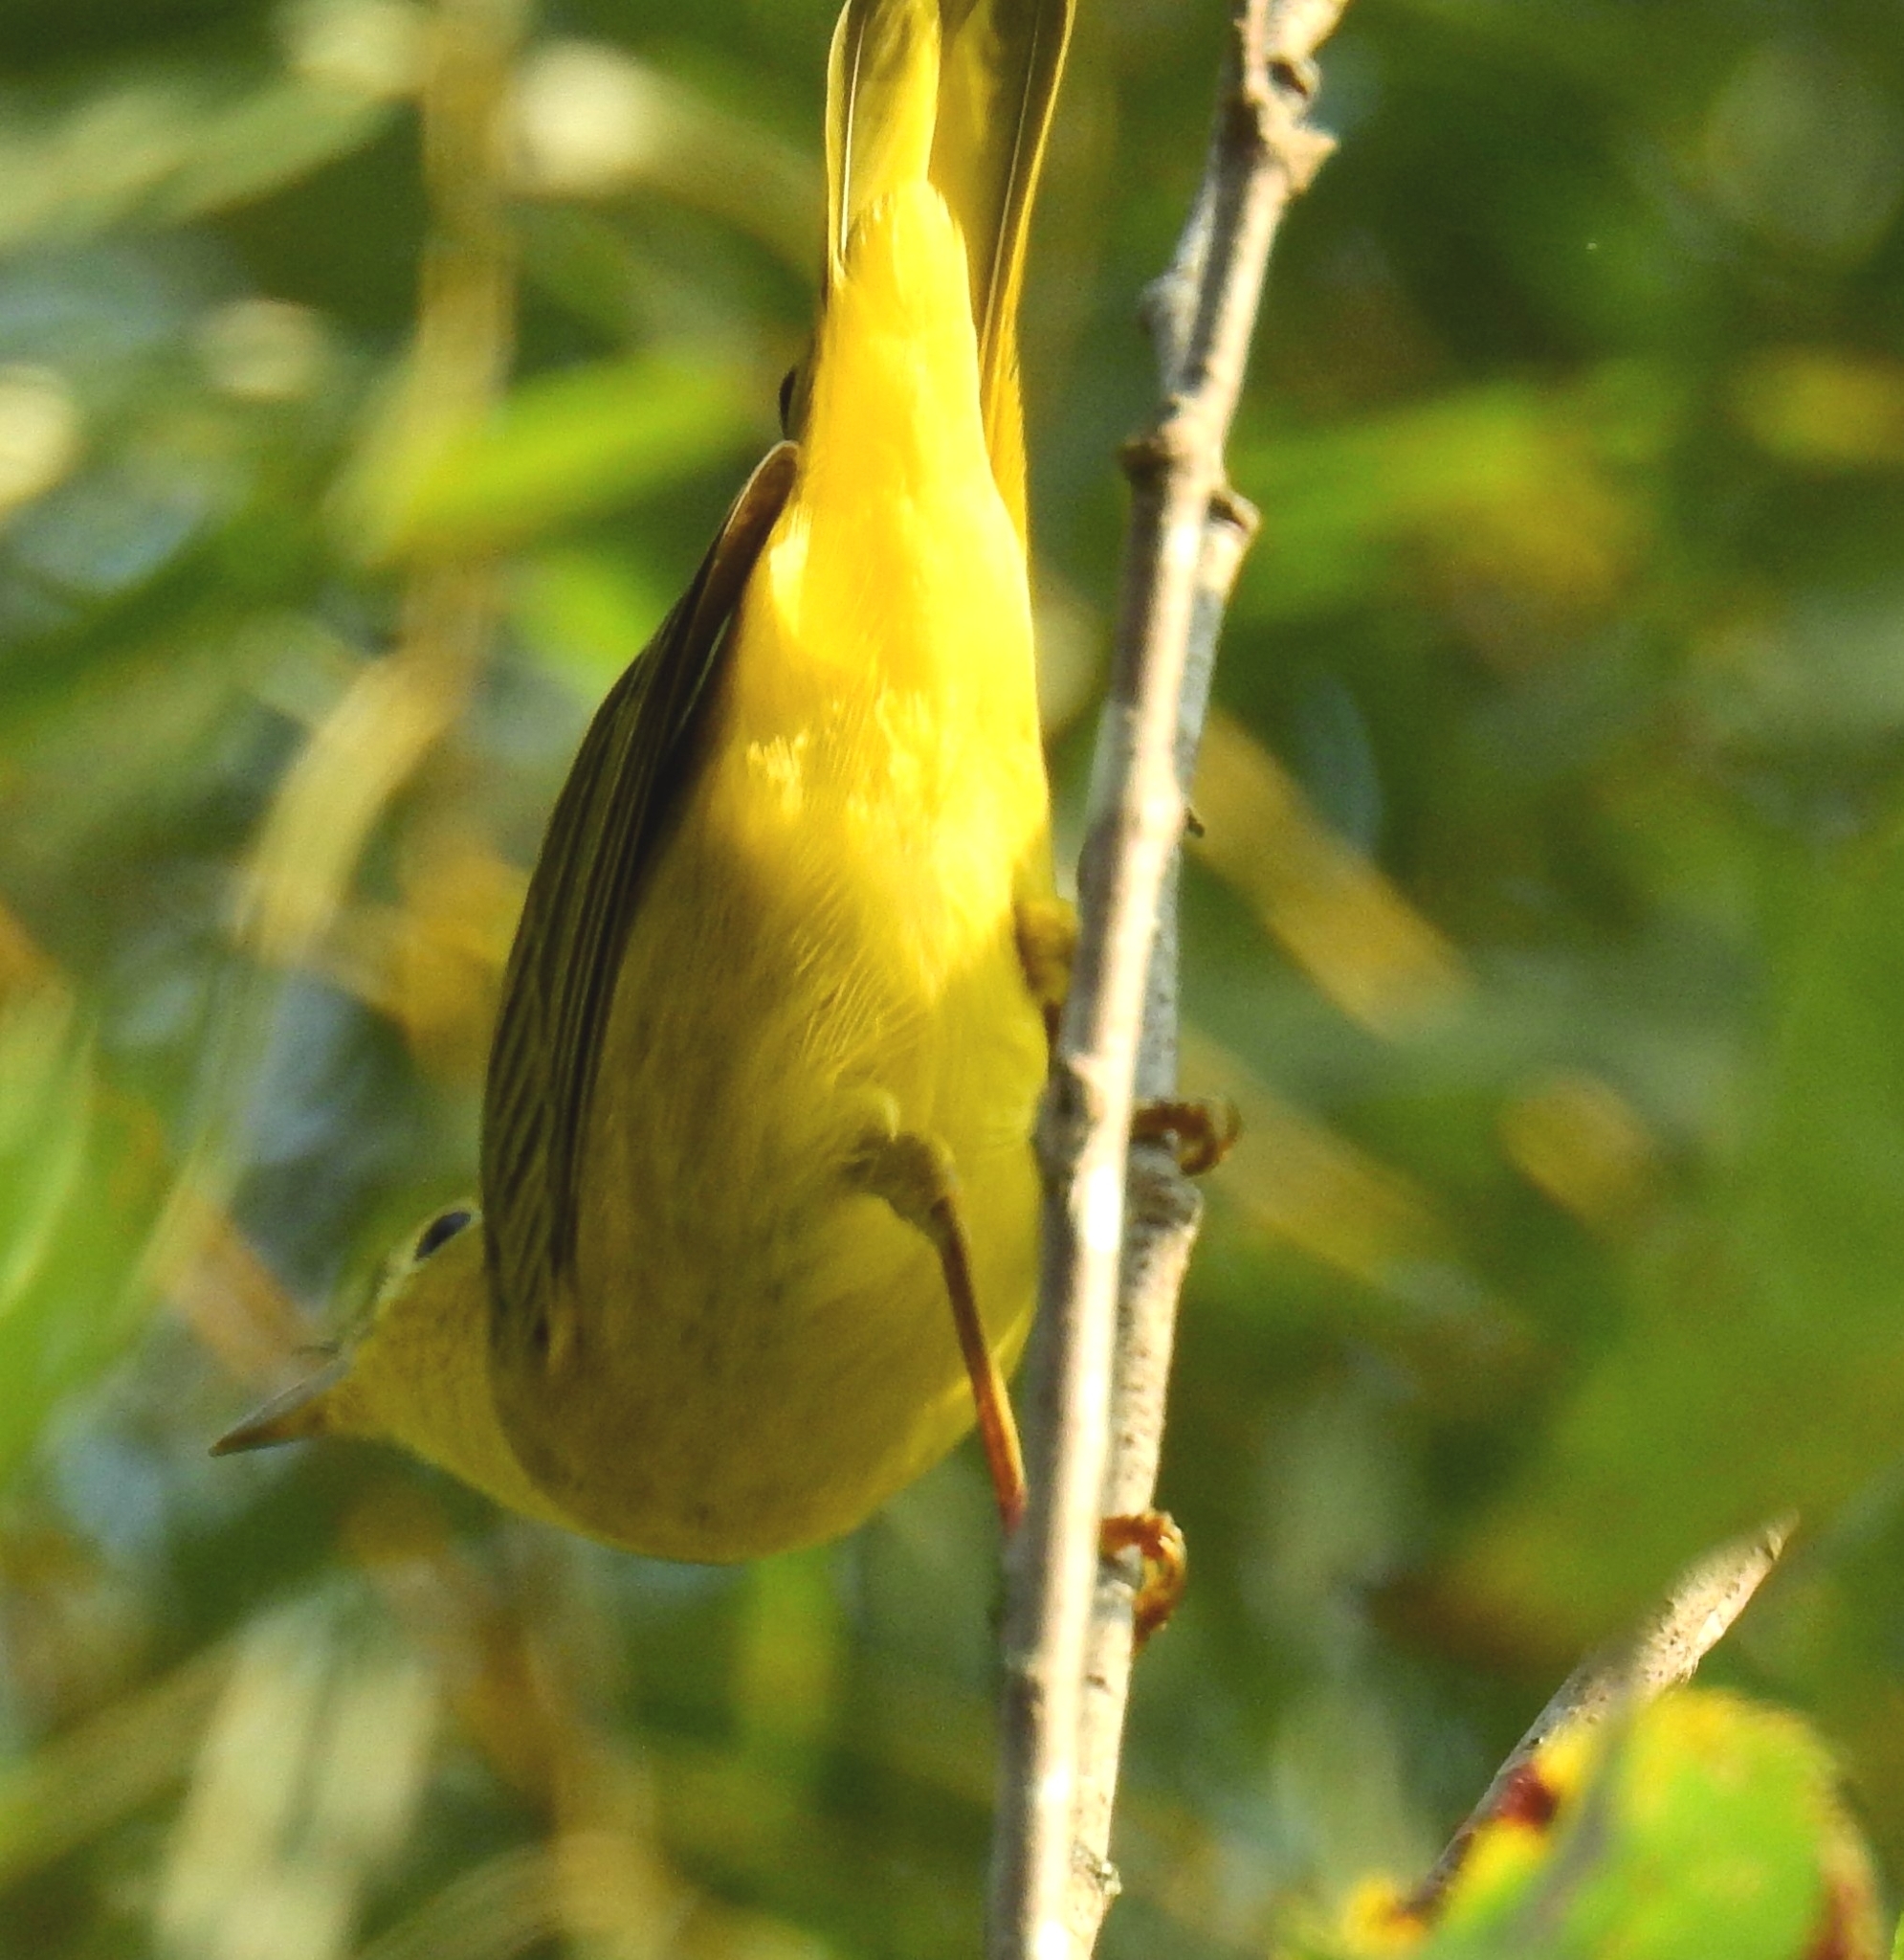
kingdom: Animalia
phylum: Chordata
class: Aves
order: Passeriformes
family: Parulidae
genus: Setophaga
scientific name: Setophaga petechia
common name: Yellow warbler
